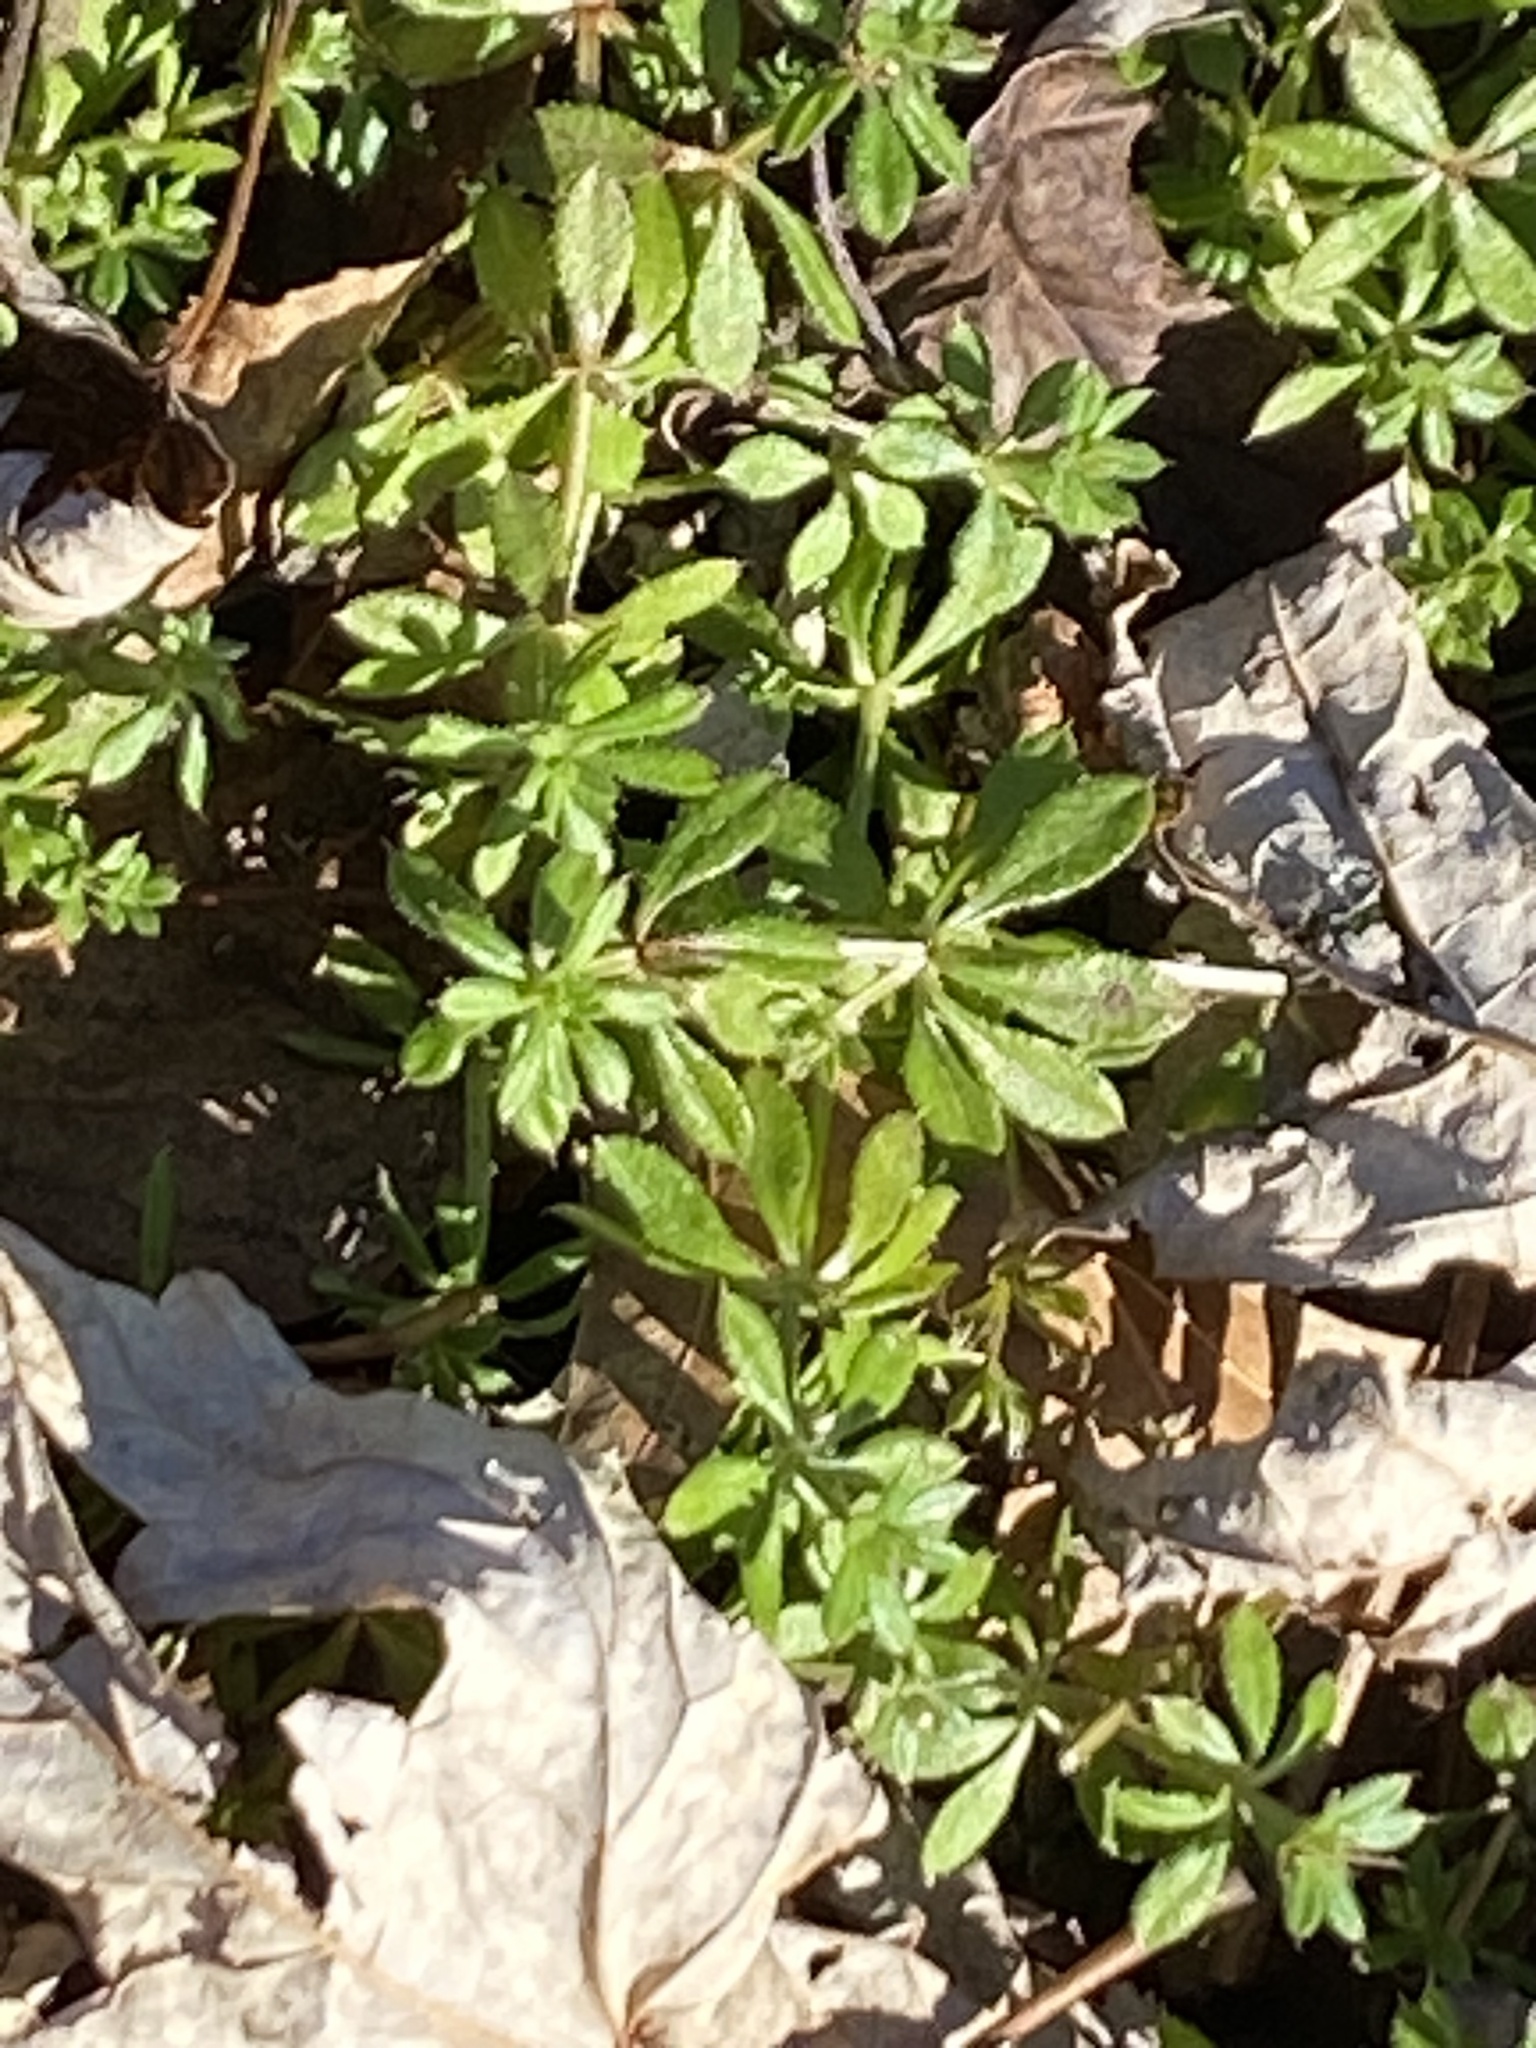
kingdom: Plantae
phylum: Tracheophyta
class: Magnoliopsida
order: Gentianales
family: Rubiaceae
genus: Galium
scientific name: Galium aparine
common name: Cleavers
